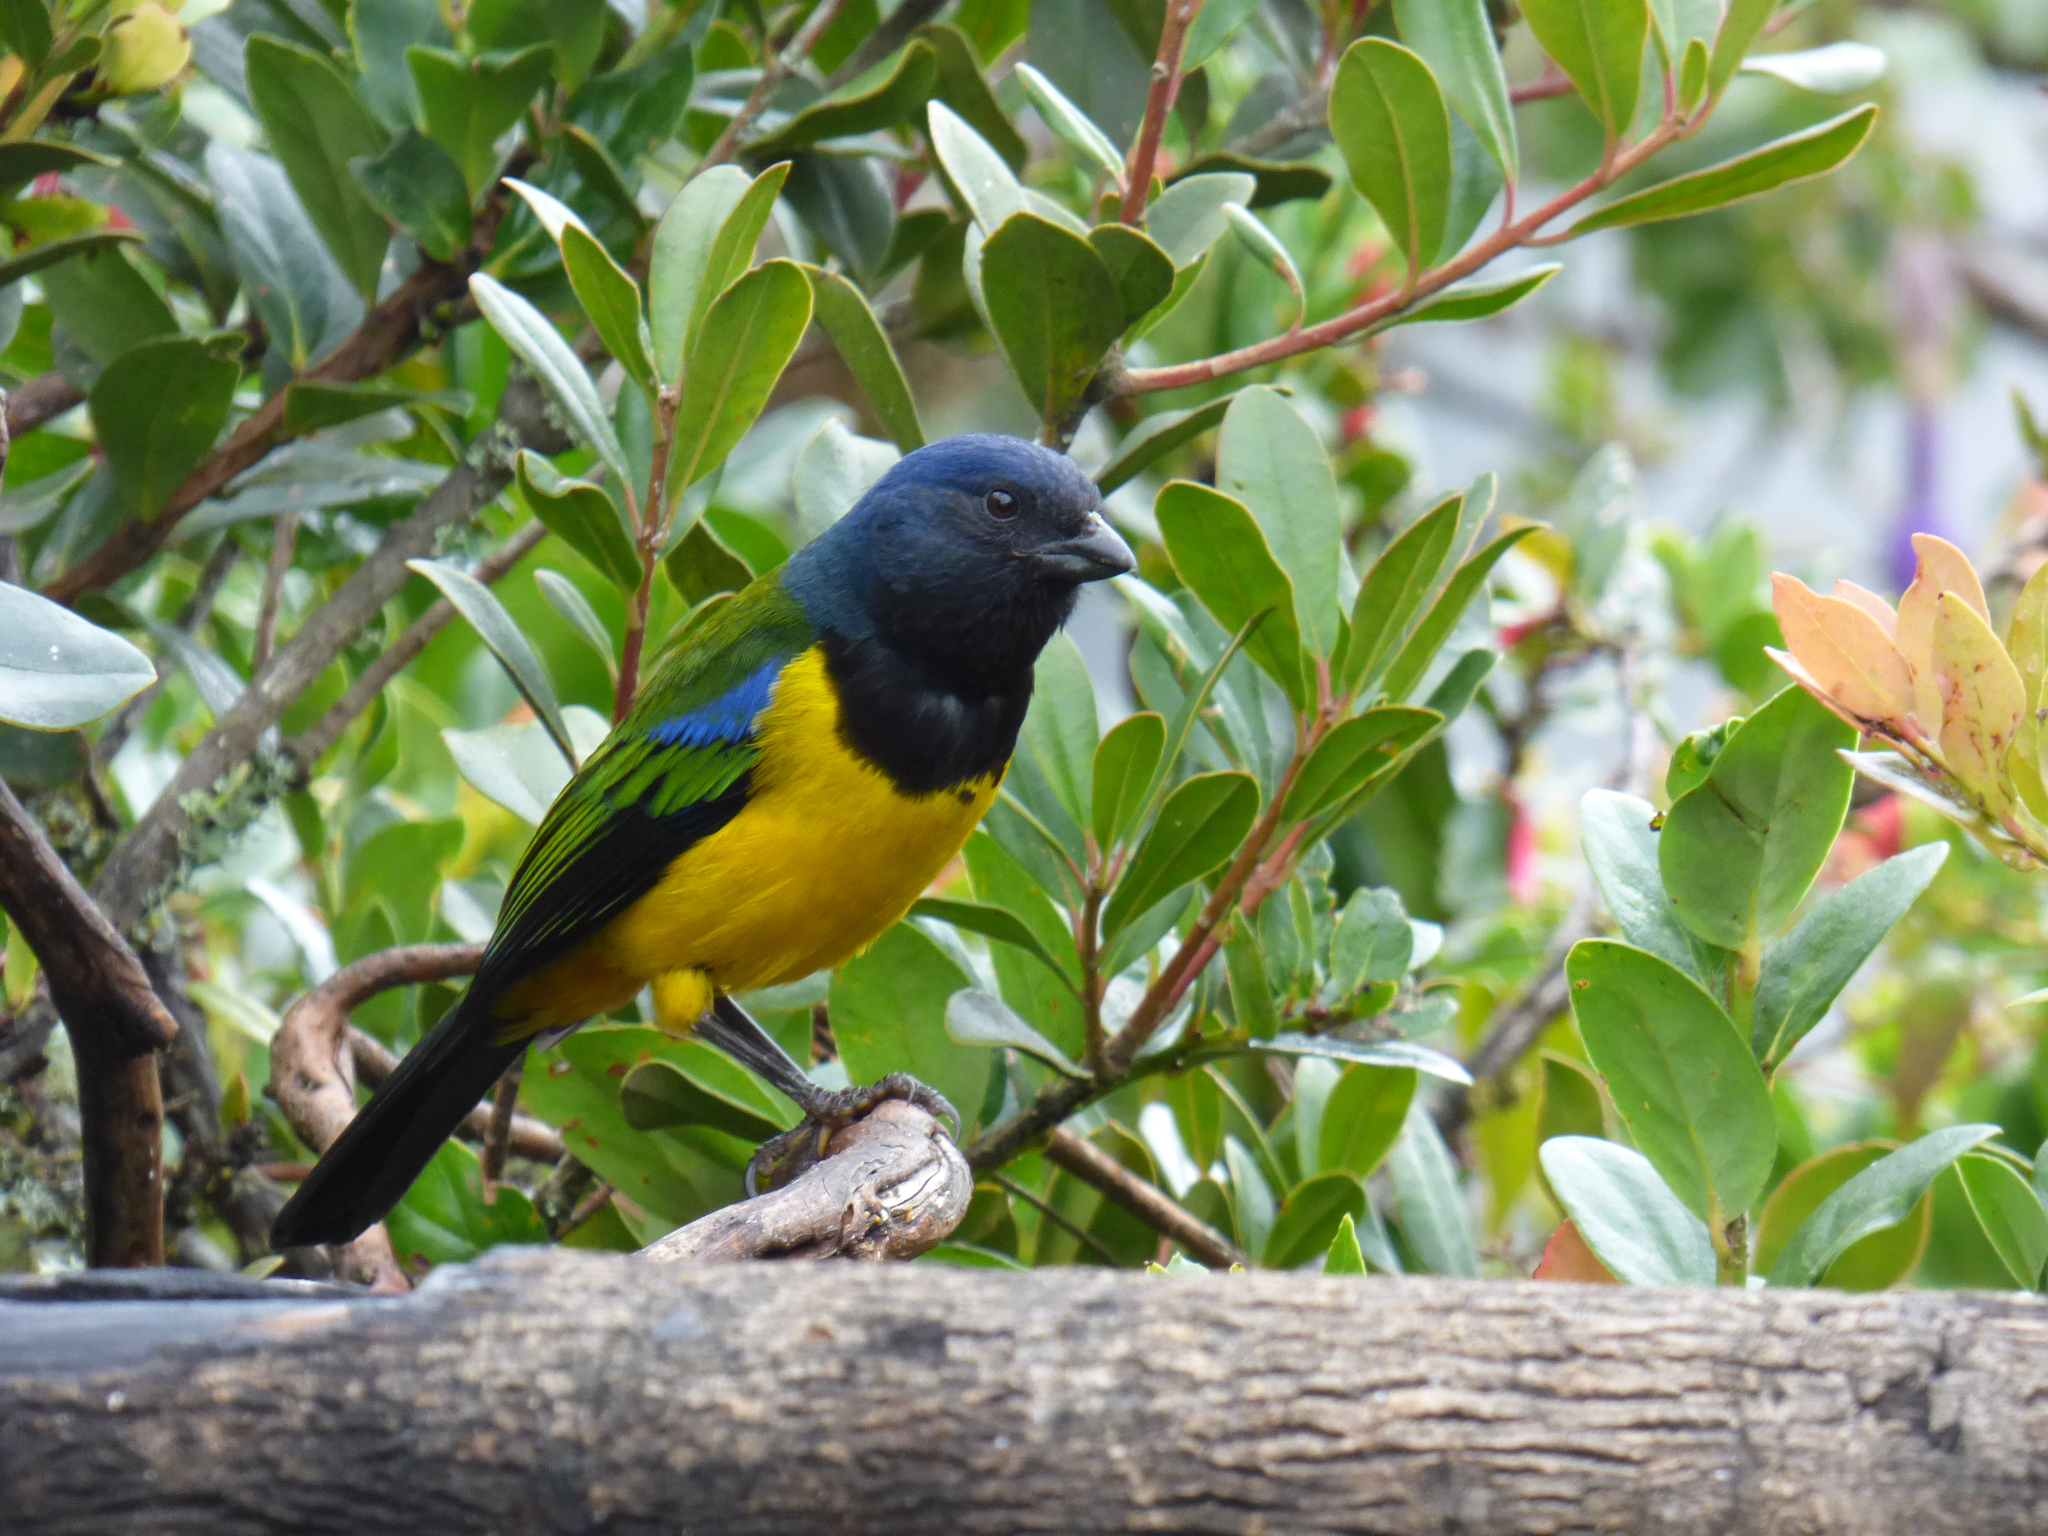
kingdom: Animalia
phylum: Chordata
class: Aves
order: Passeriformes
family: Thraupidae
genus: Cnemathraupis
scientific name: Cnemathraupis eximia
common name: Black-chested mountain-tanager
